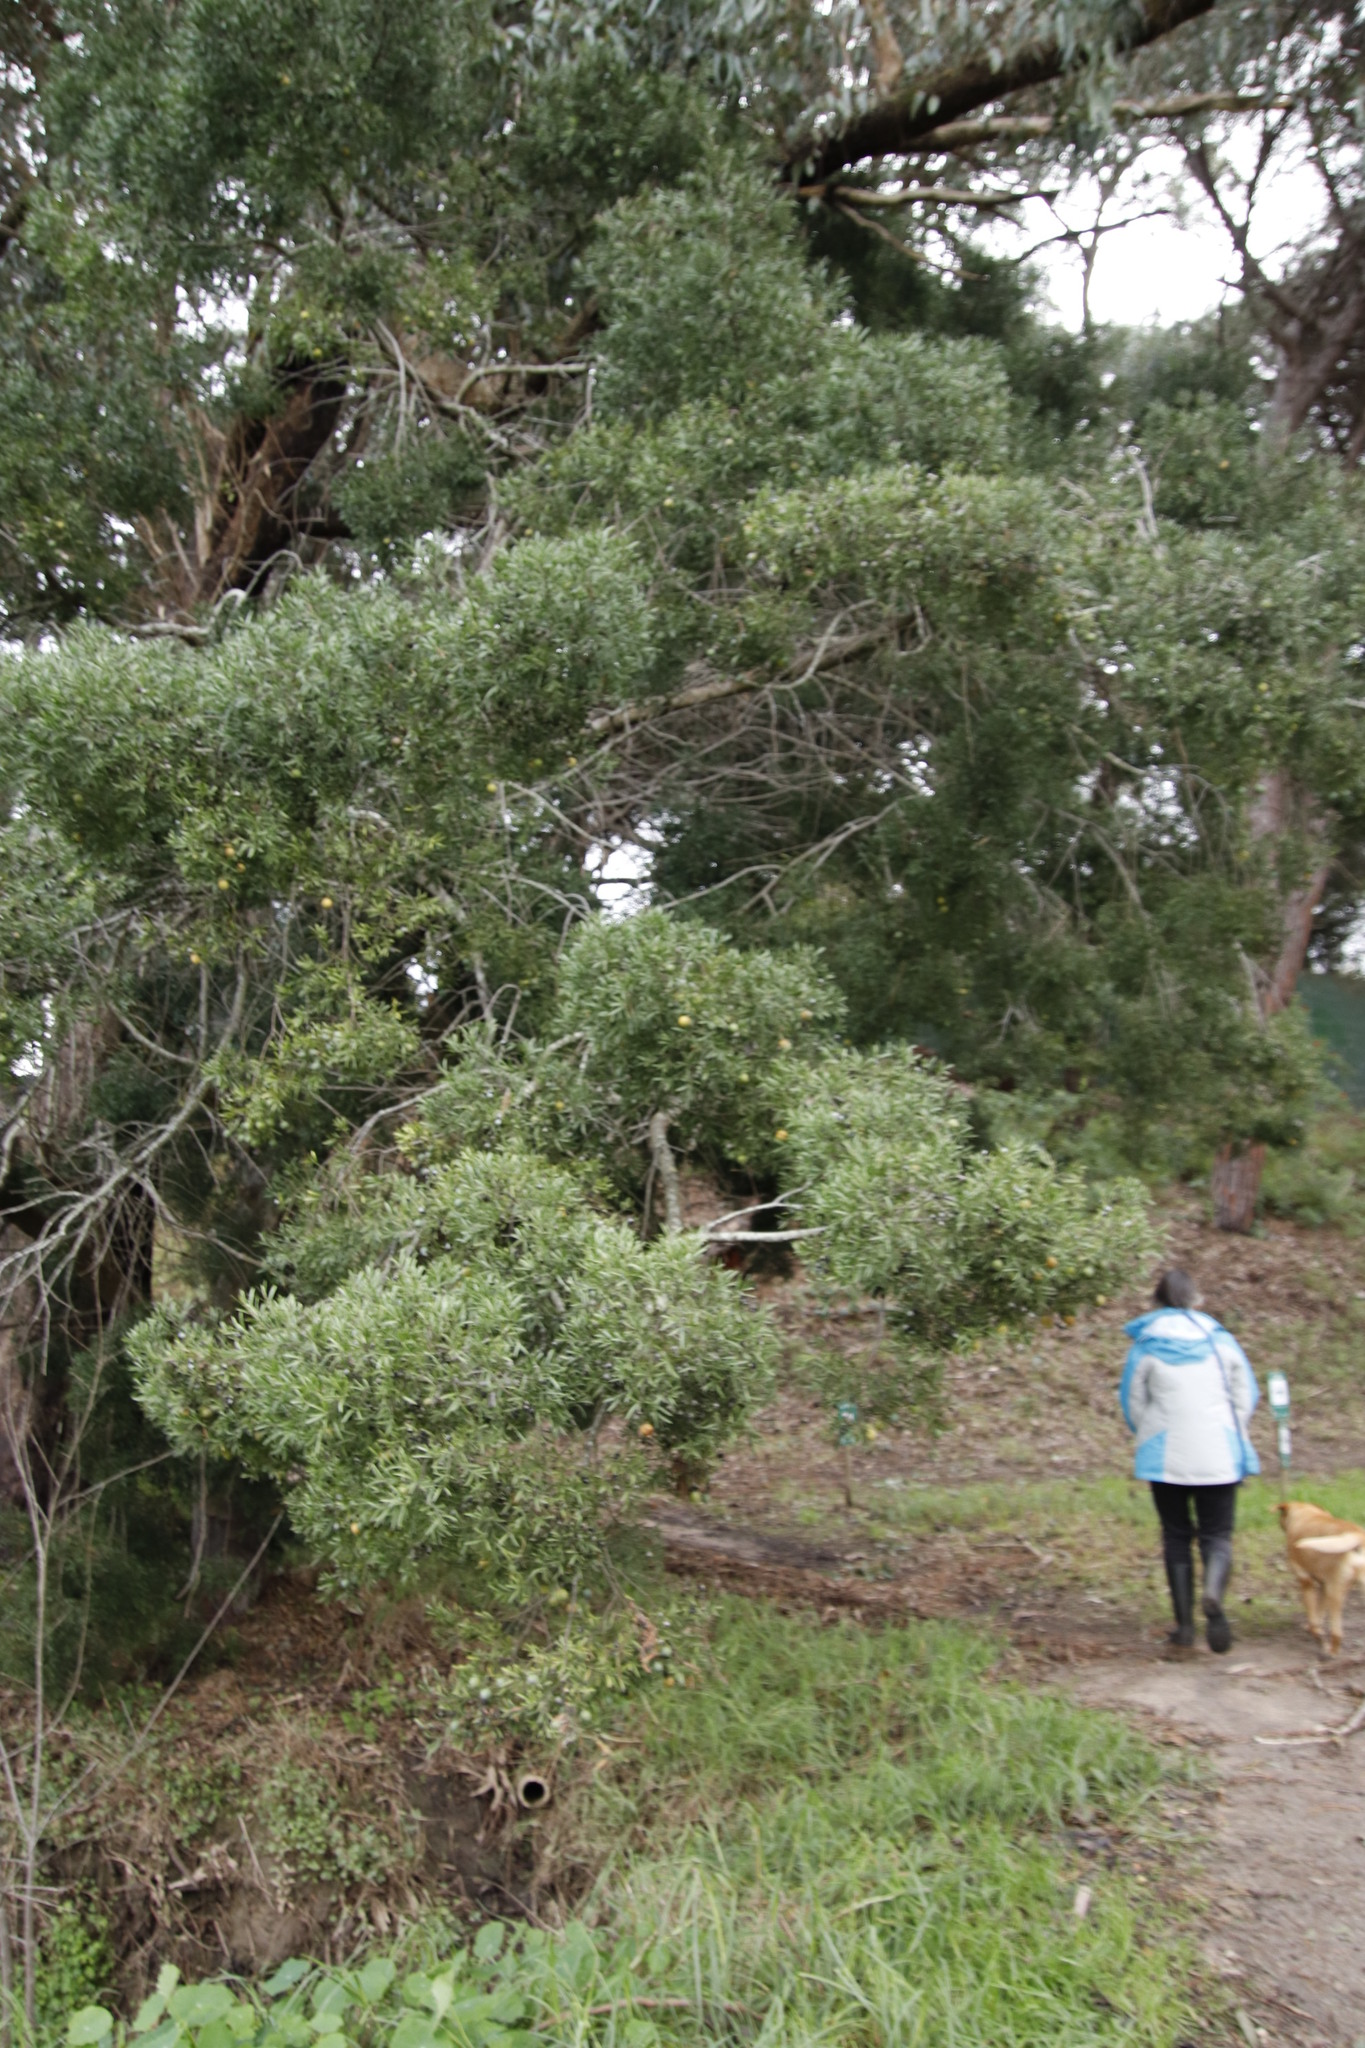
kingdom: Plantae
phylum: Tracheophyta
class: Pinopsida
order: Pinales
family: Podocarpaceae
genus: Afrocarpus
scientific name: Afrocarpus falcatus
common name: Bastard yellowwood
